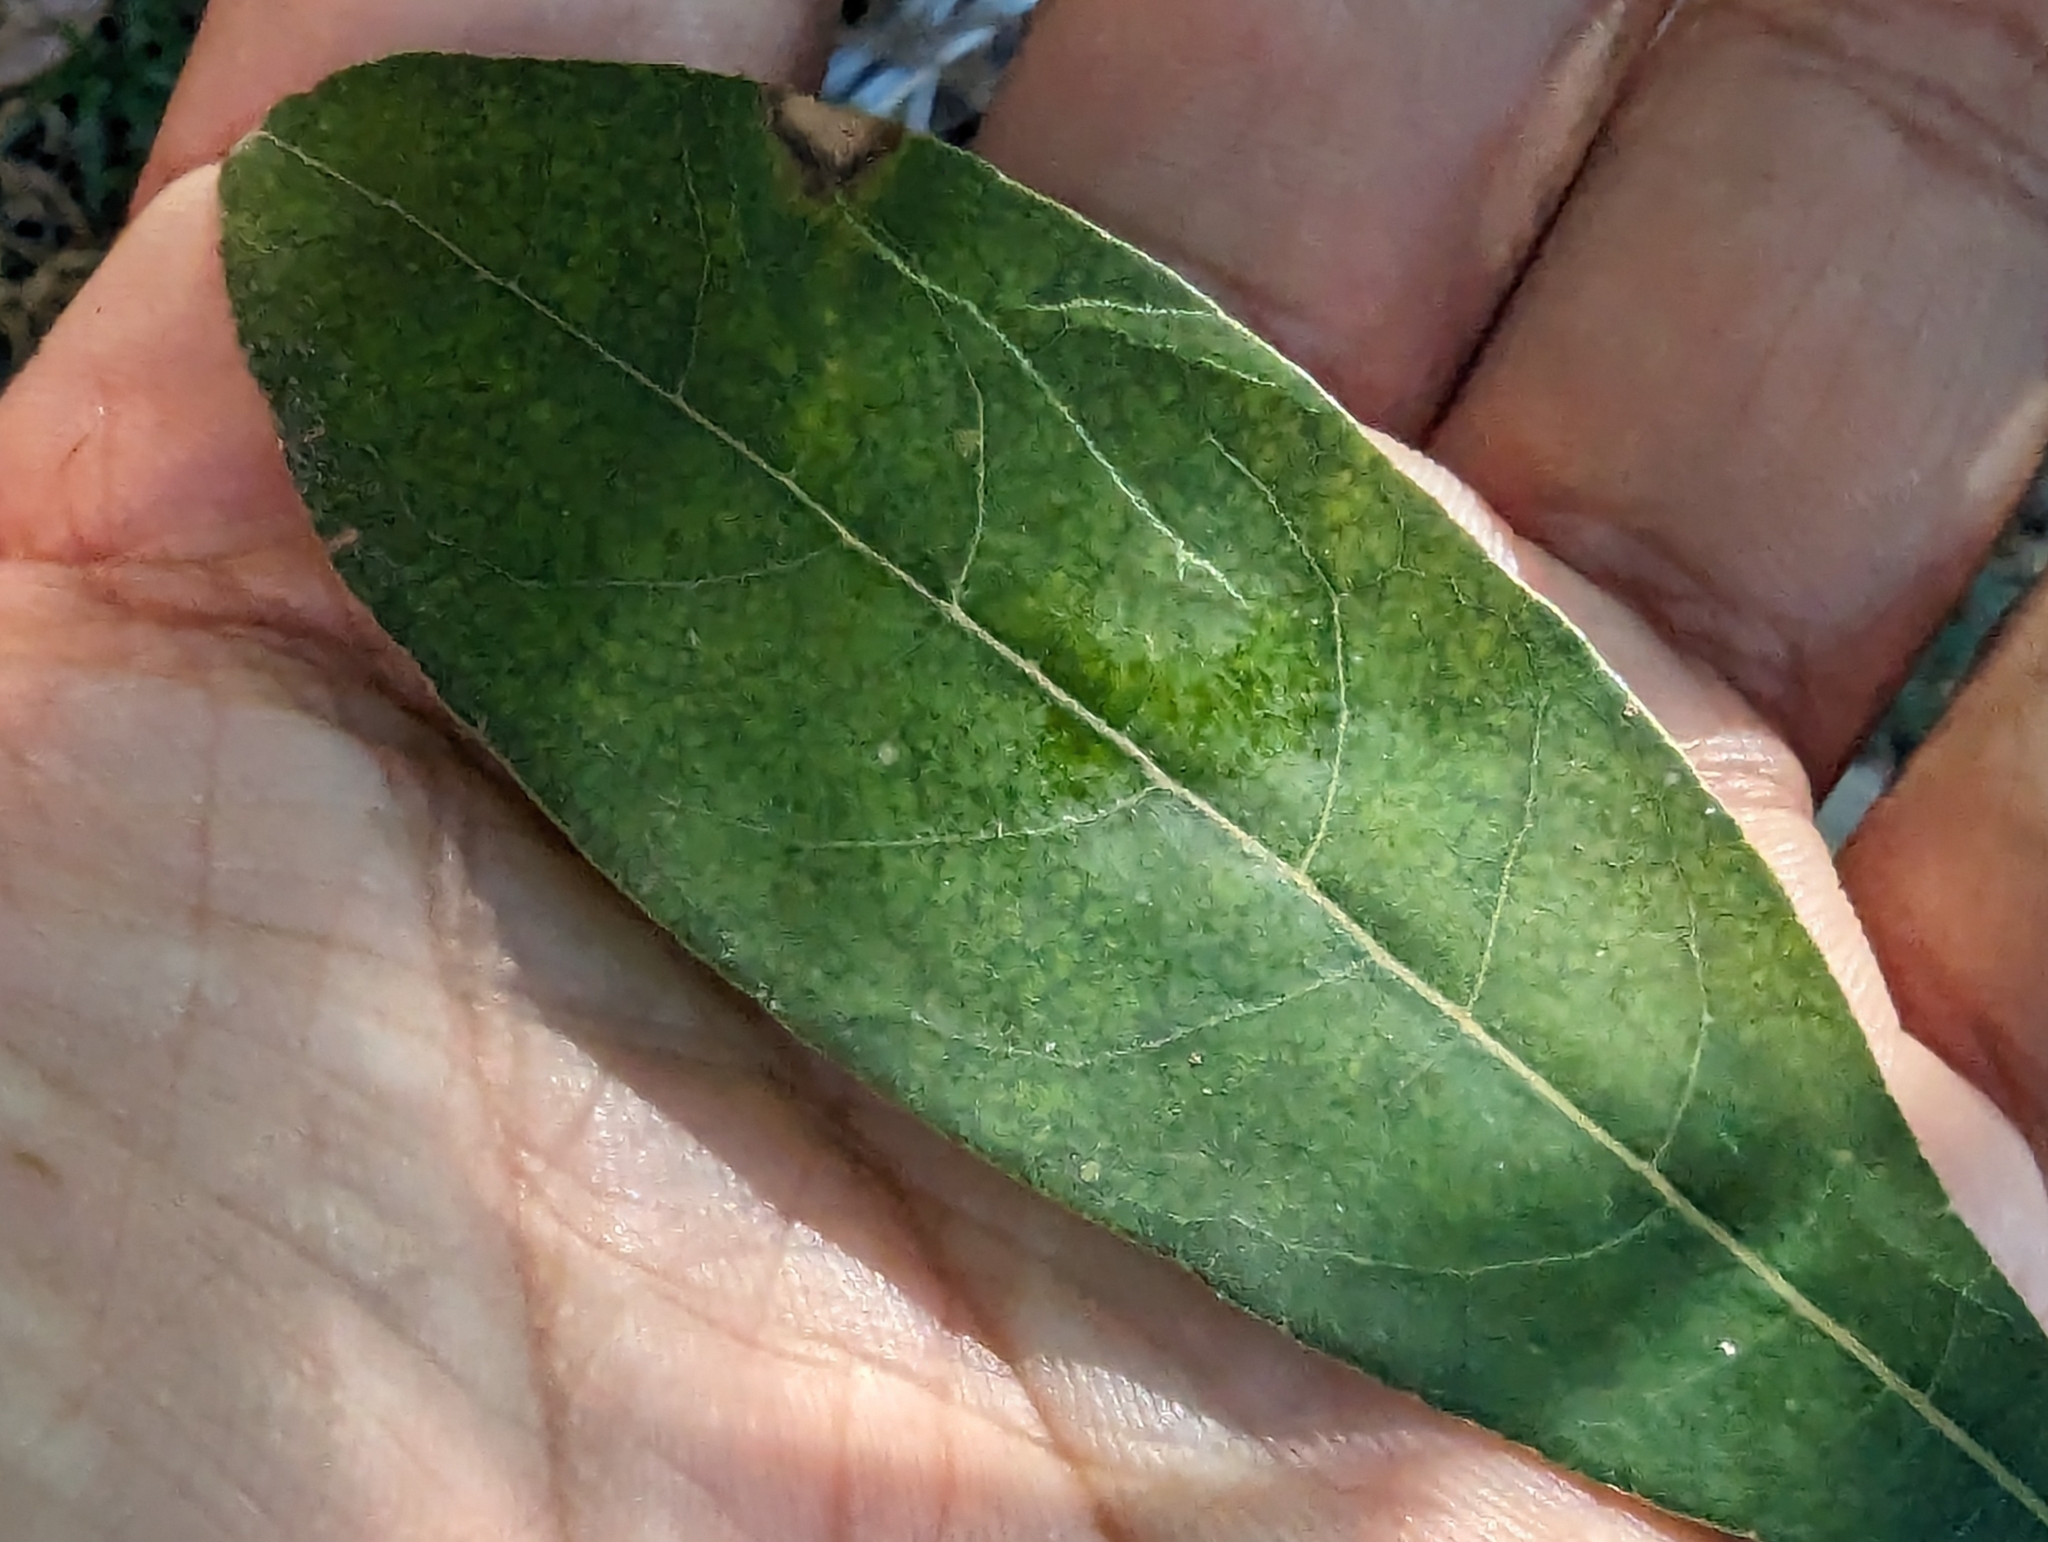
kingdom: Plantae
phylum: Tracheophyta
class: Magnoliopsida
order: Laurales
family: Lauraceae
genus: Litsea
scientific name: Litsea hypophaea
